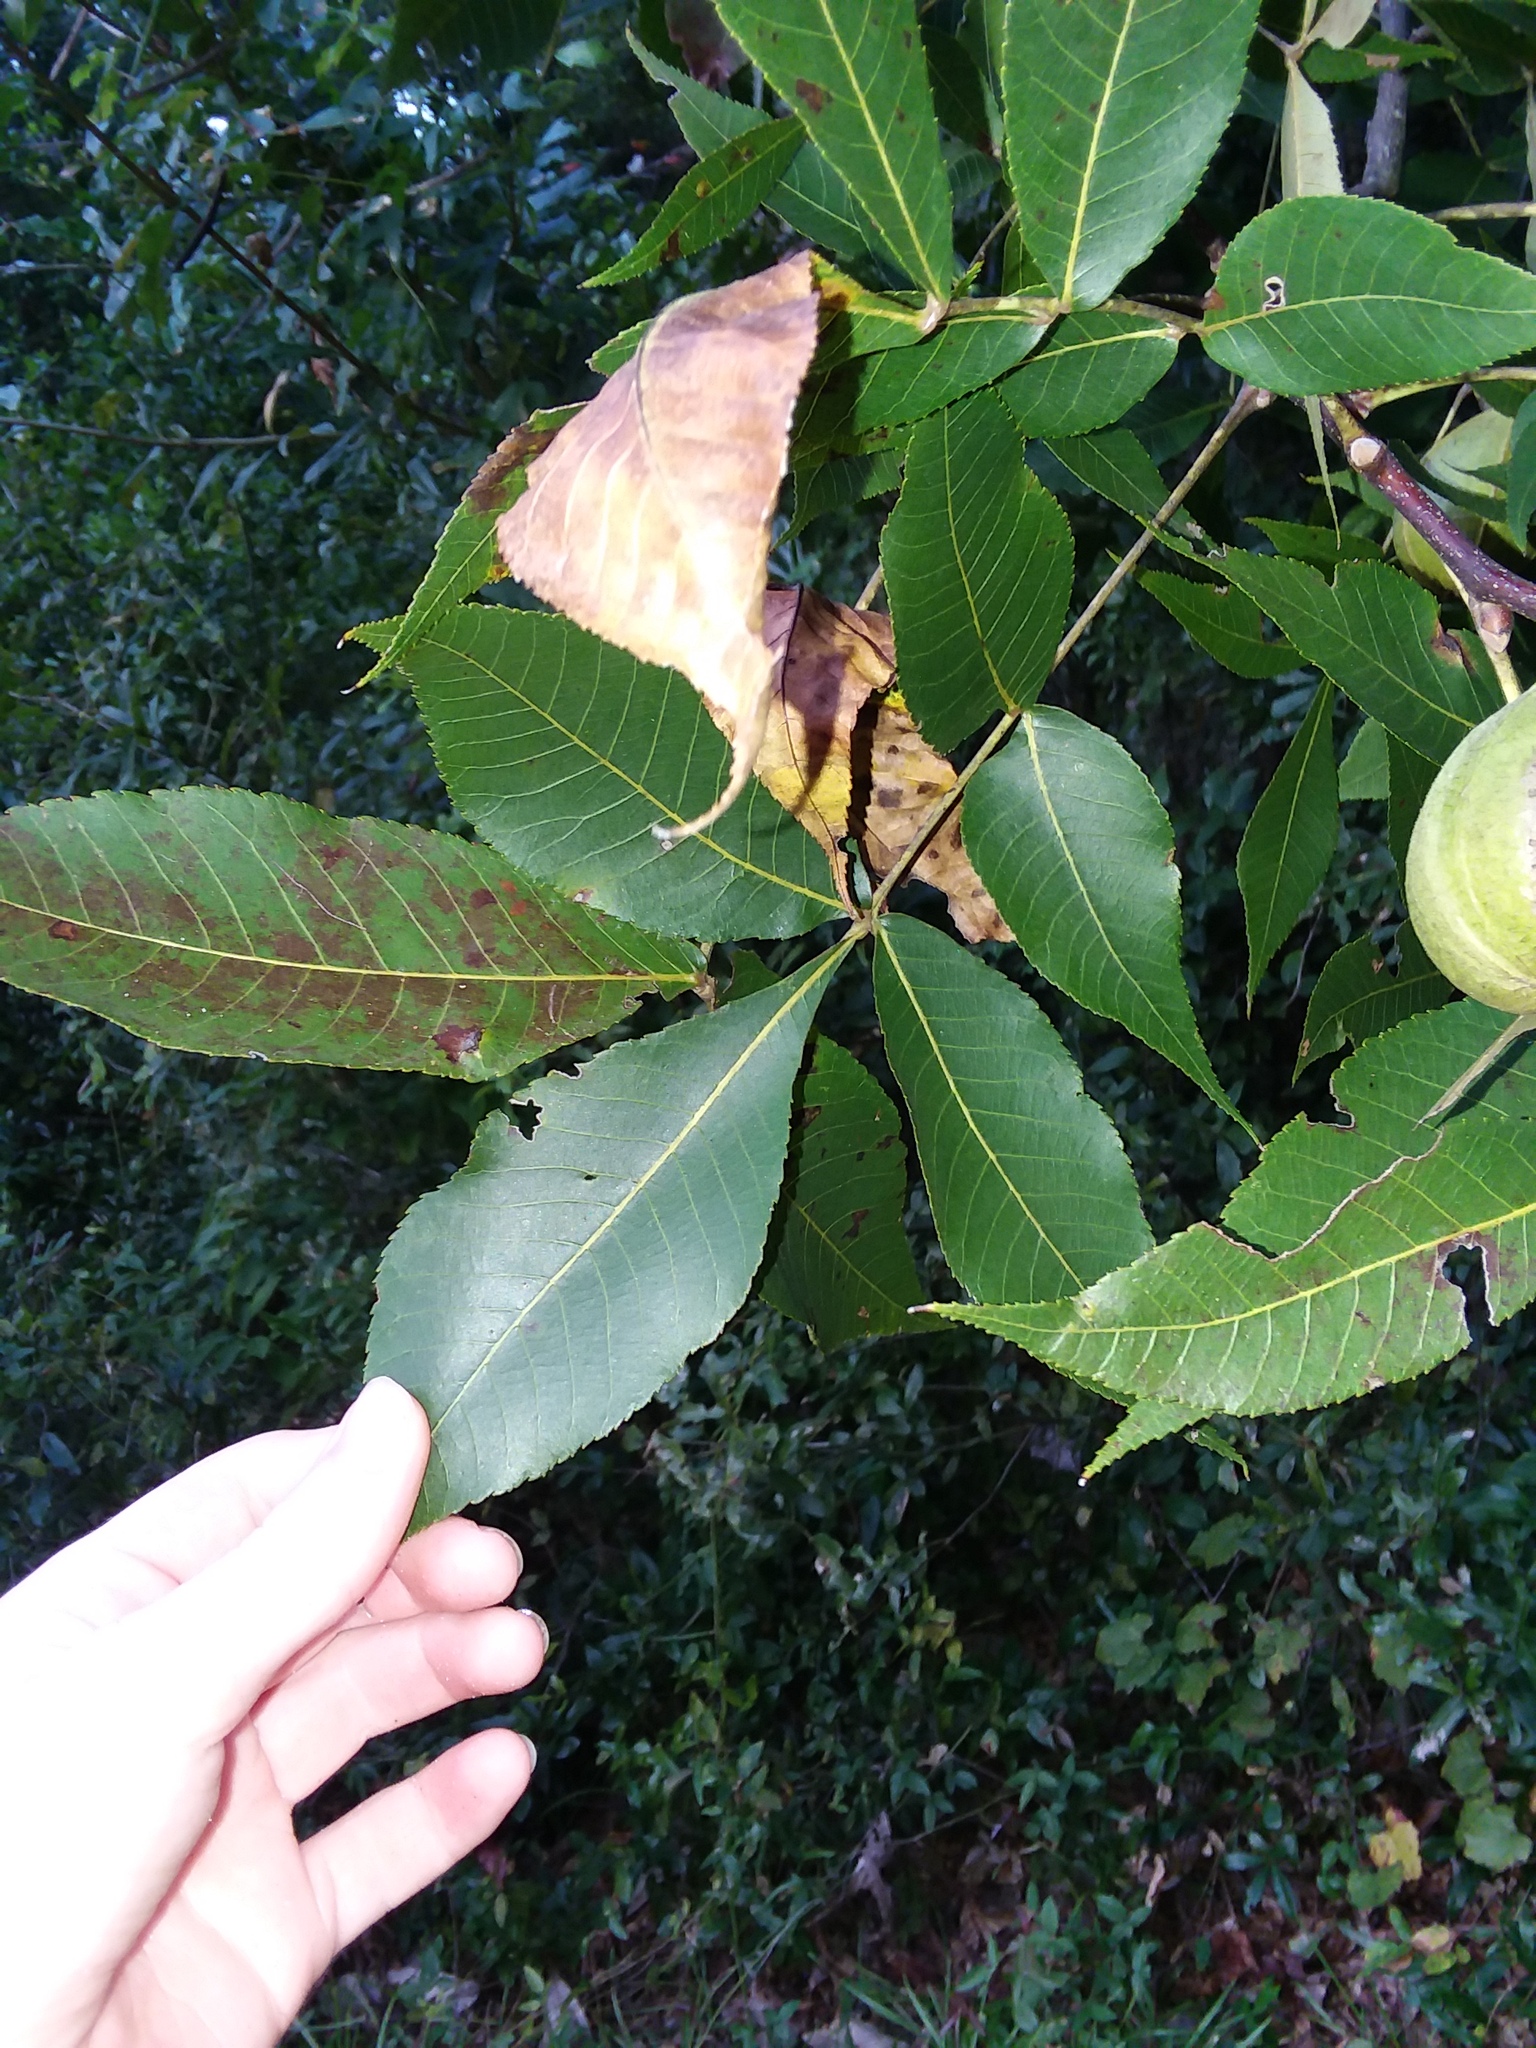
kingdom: Plantae
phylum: Tracheophyta
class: Magnoliopsida
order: Fagales
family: Juglandaceae
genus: Carya
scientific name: Carya glabra
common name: Pignut hickory
